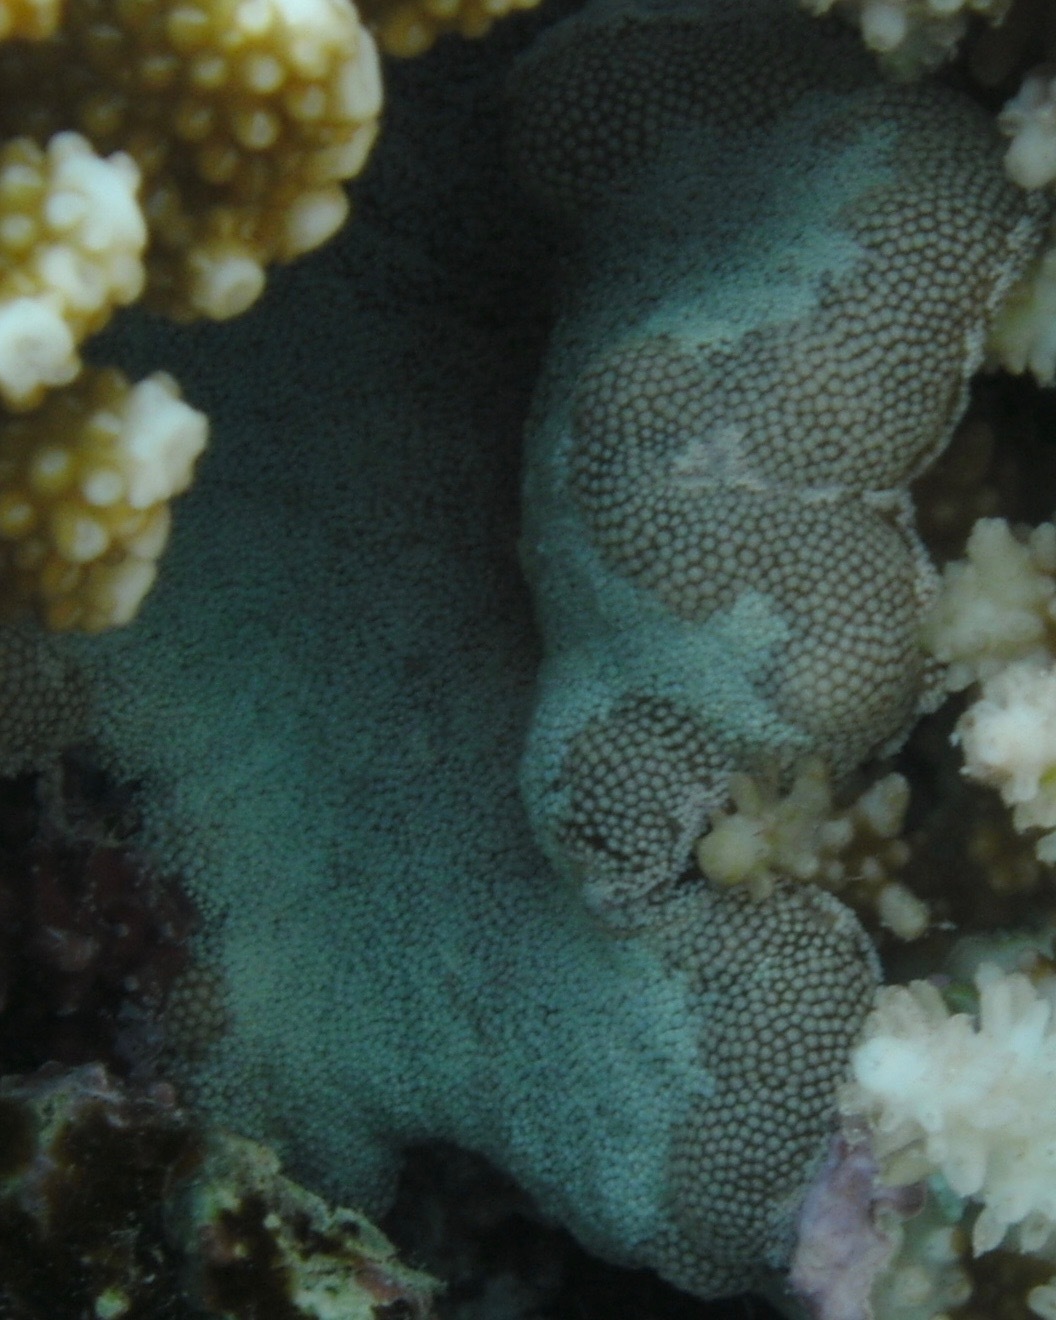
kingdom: Animalia
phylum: Cnidaria
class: Anthozoa
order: Actiniaria
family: Thalassianthidae
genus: Cryptodendrum
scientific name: Cryptodendrum adhaesivum
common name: Adhesive sea anemone
